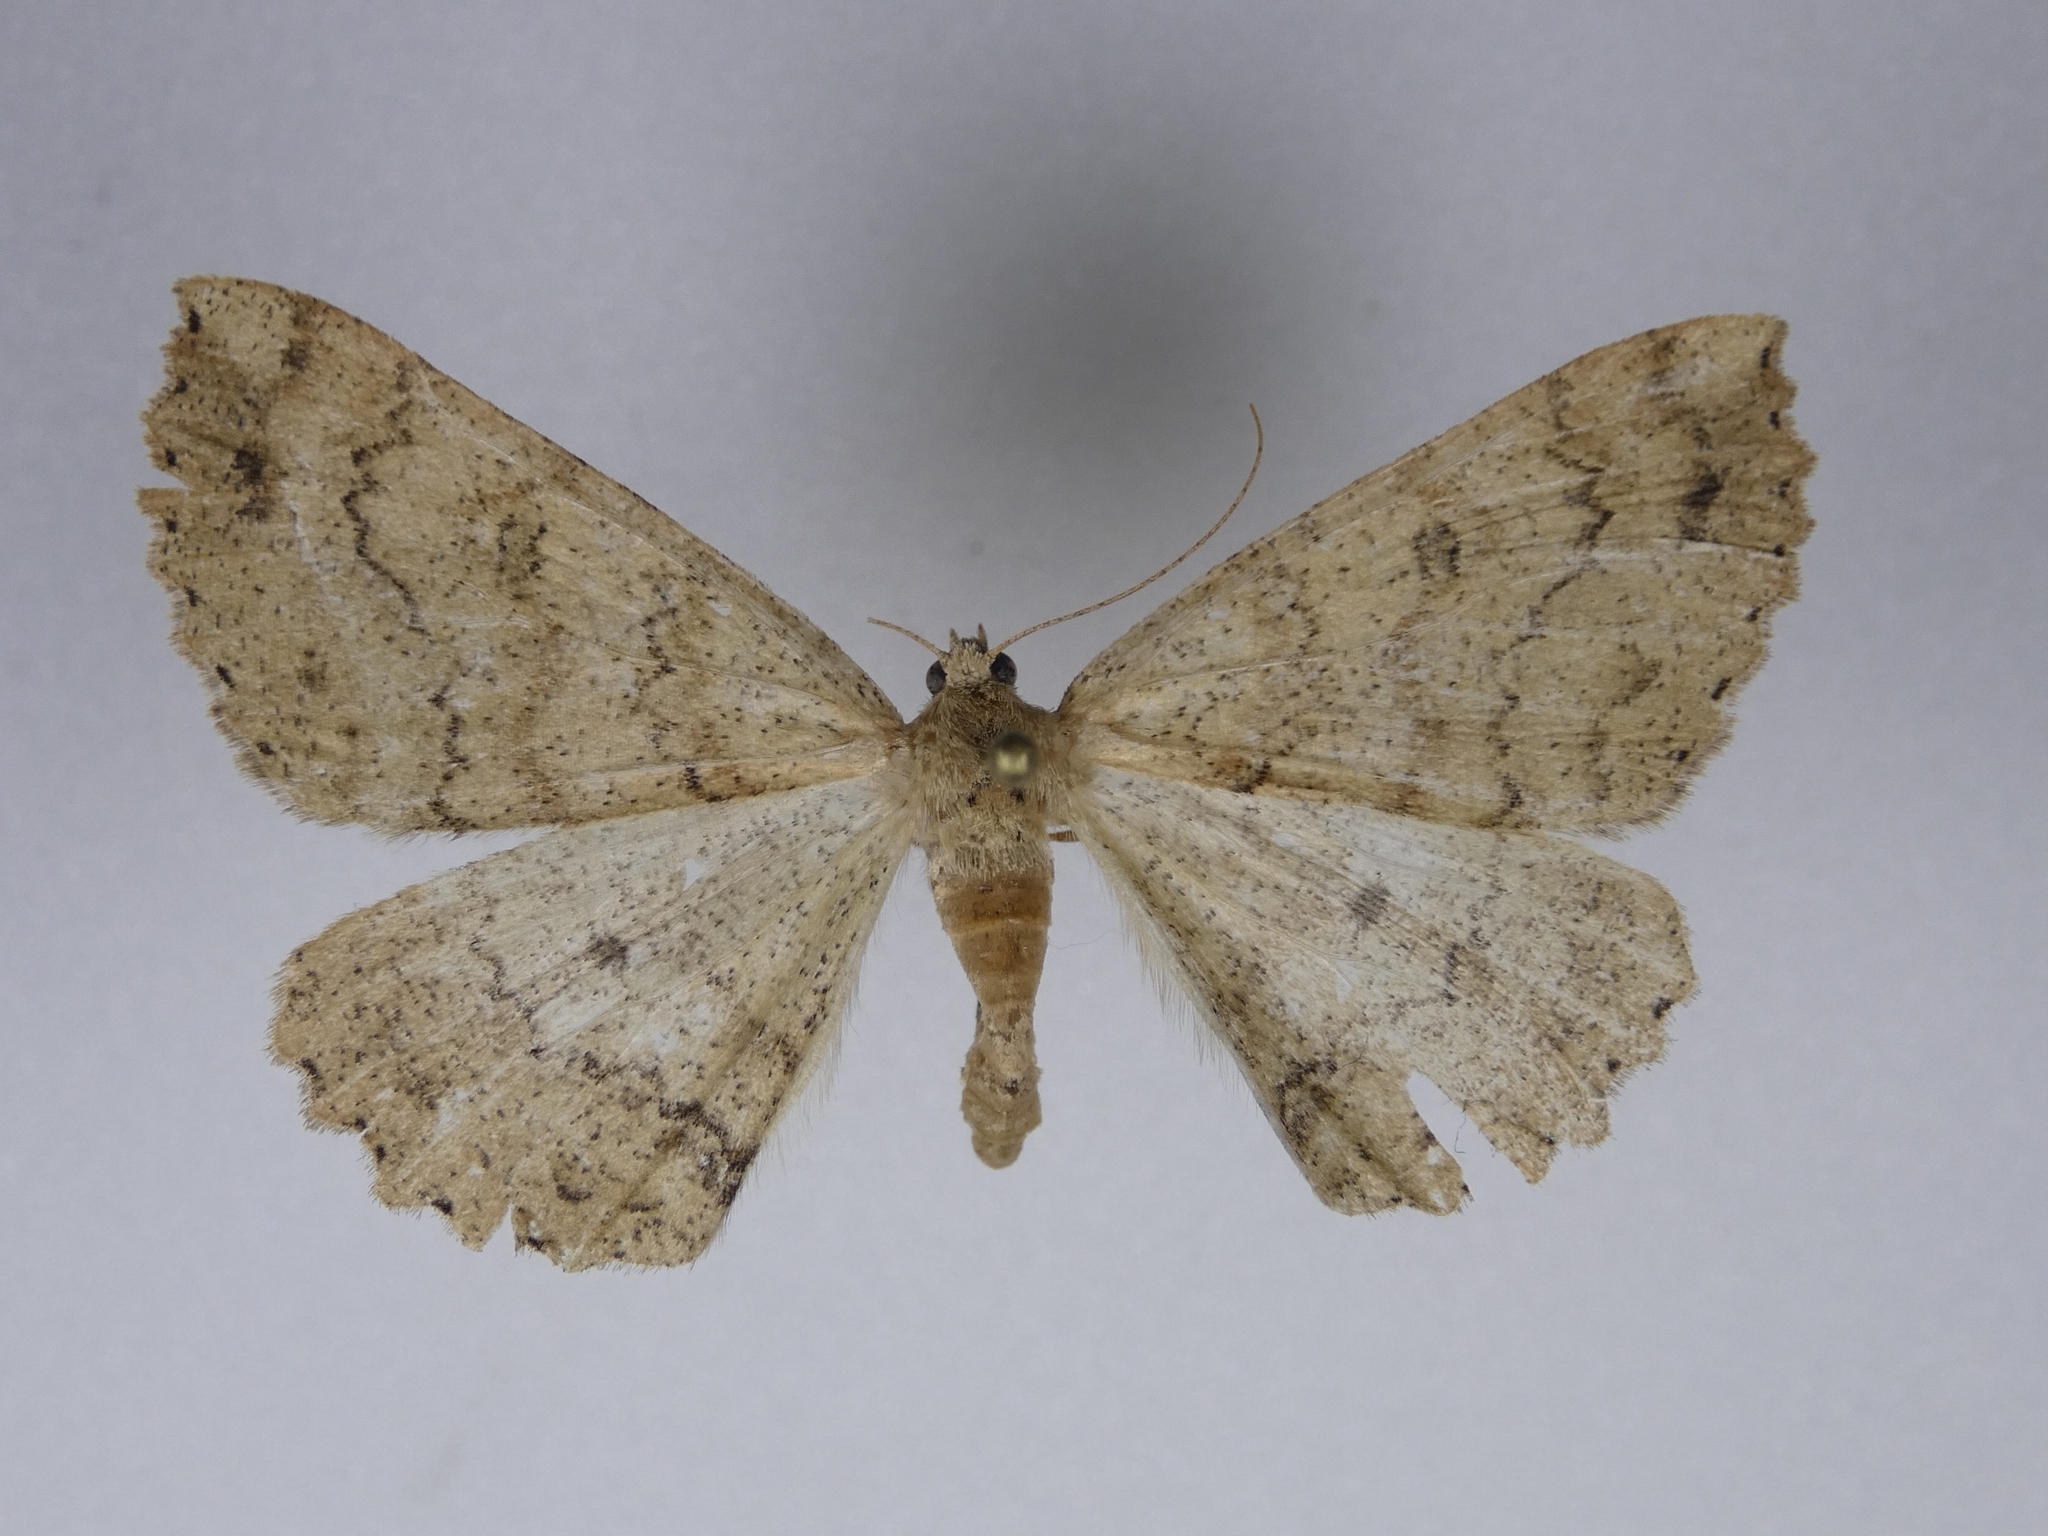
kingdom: Animalia
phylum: Arthropoda
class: Insecta
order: Lepidoptera
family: Geometridae
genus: Cleora
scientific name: Cleora scriptaria
